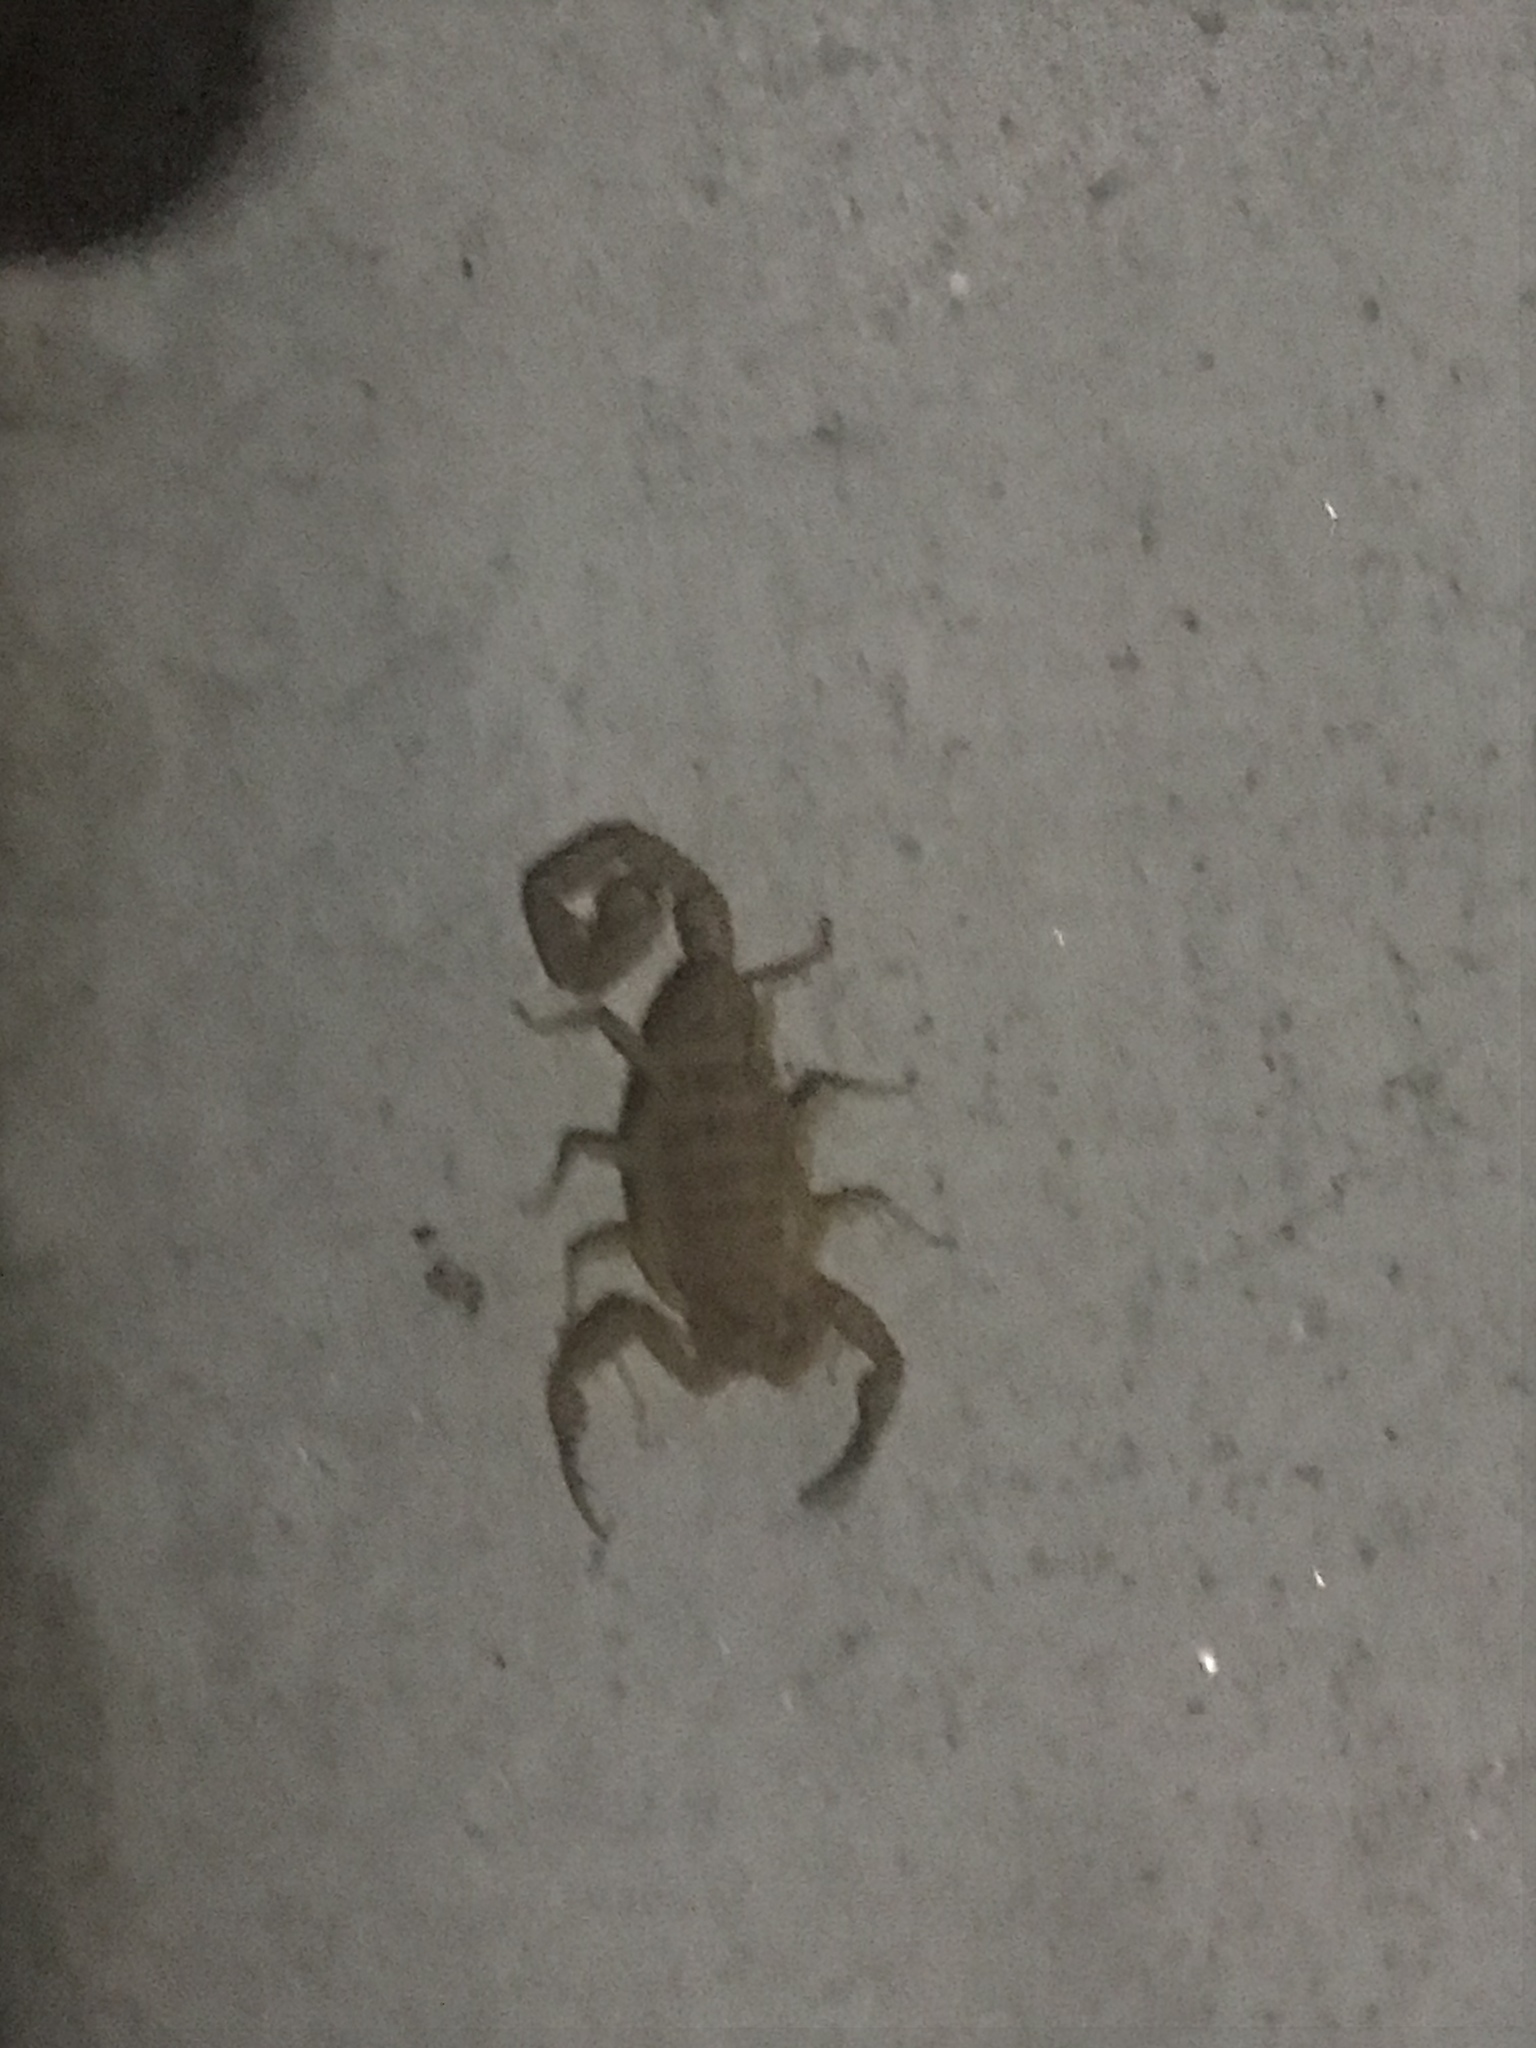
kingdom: Animalia
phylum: Arthropoda
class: Arachnida
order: Scorpiones
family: Buthidae
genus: Centruroides
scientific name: Centruroides sculpturatus
